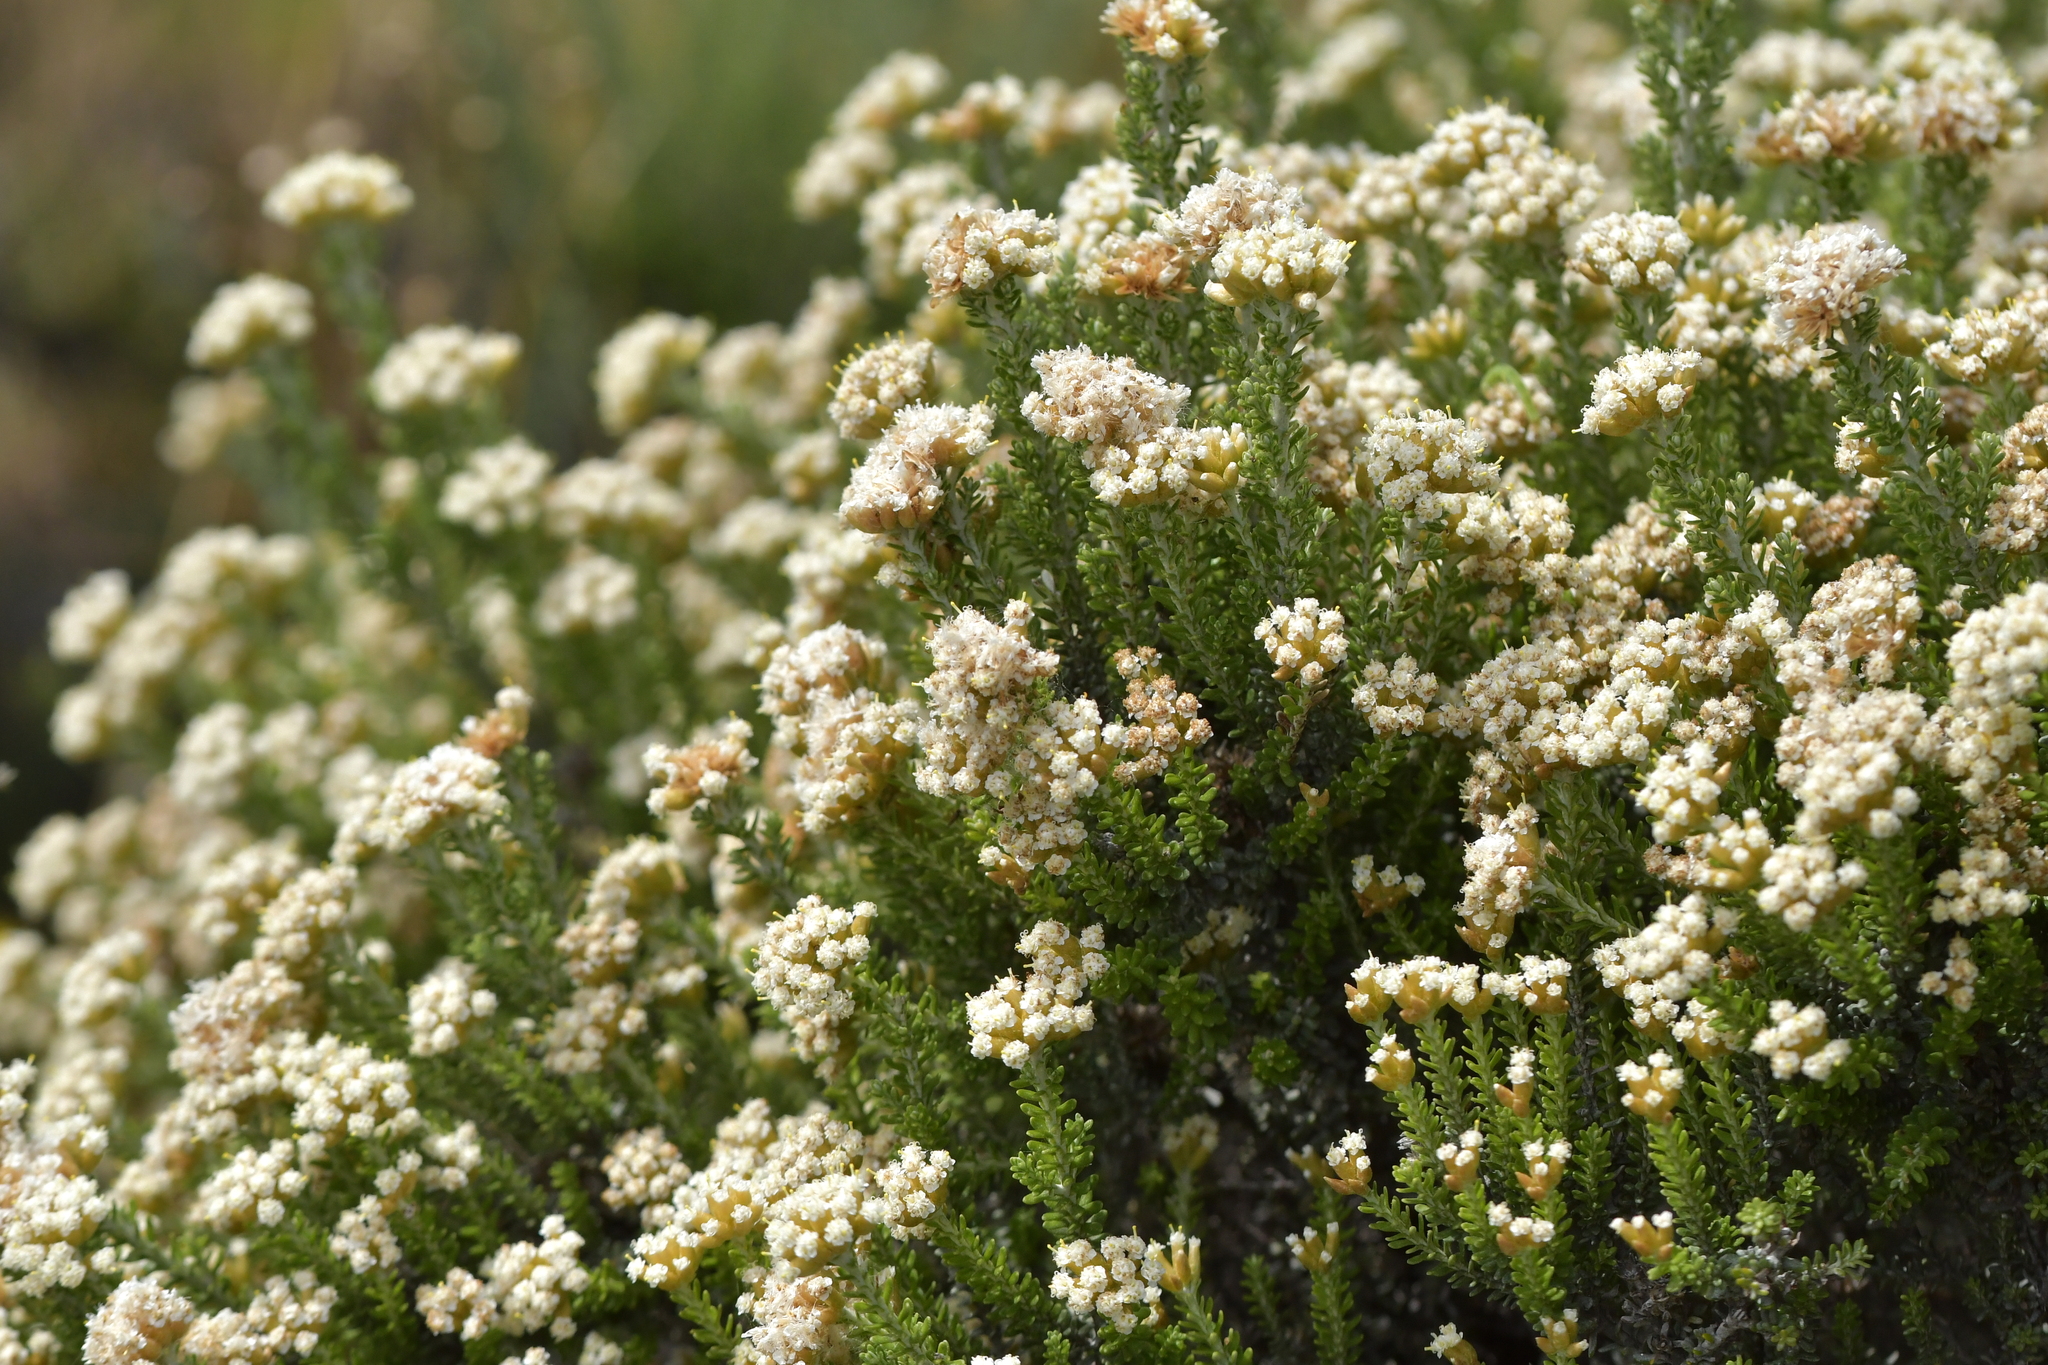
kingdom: Plantae
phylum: Tracheophyta
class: Magnoliopsida
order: Asterales
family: Asteraceae
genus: Ozothamnus
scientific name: Ozothamnus leptophyllus
